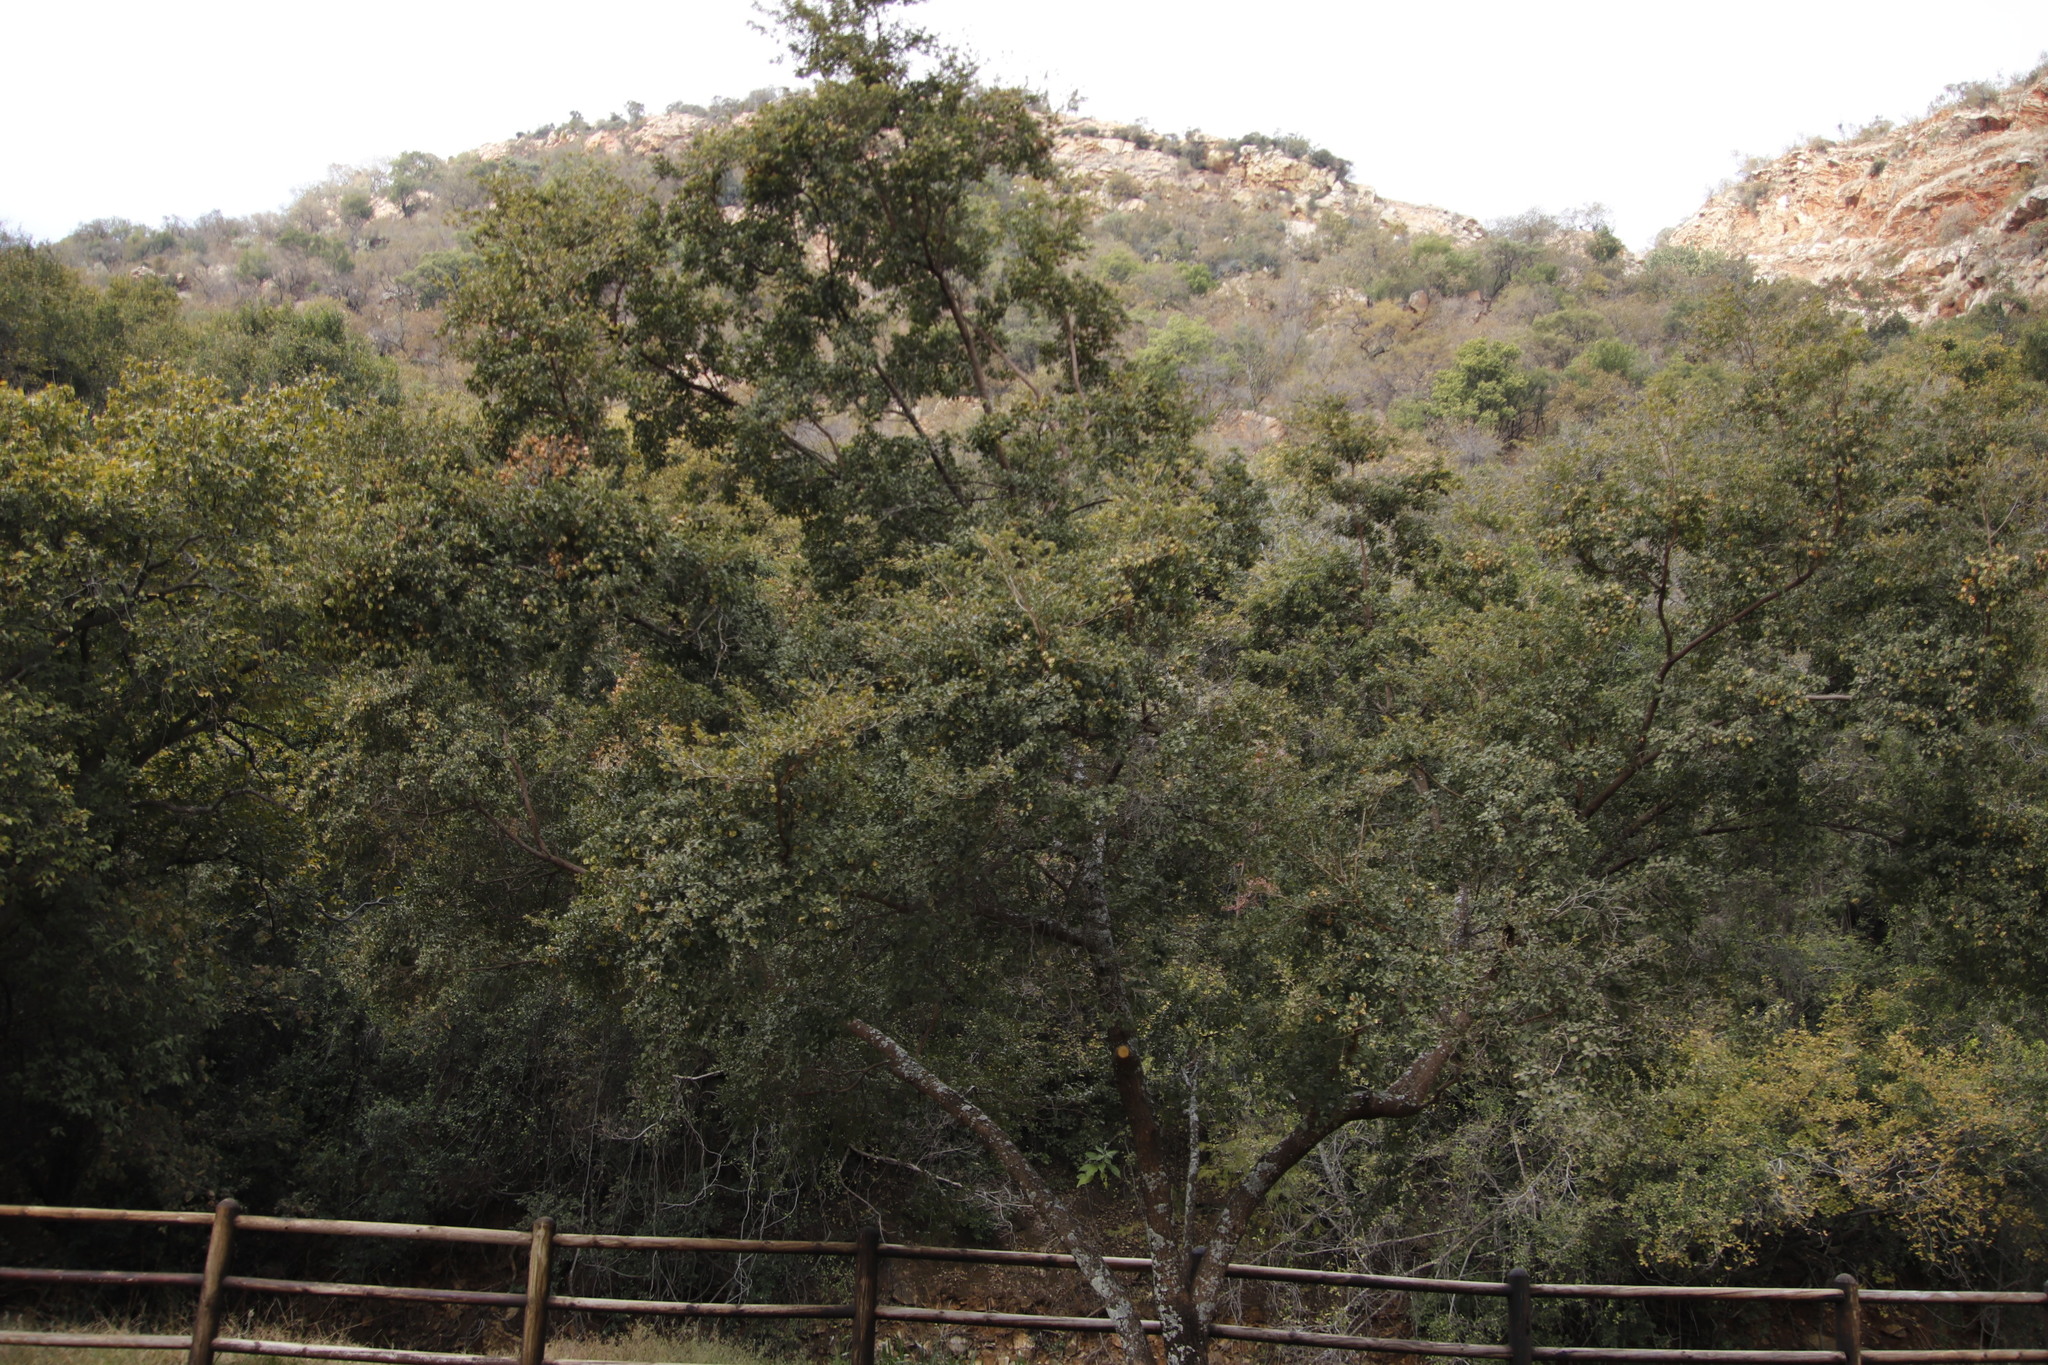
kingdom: Plantae
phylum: Tracheophyta
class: Magnoliopsida
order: Myrtales
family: Combretaceae
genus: Combretum
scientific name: Combretum erythrophyllum
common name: Bush-willow
